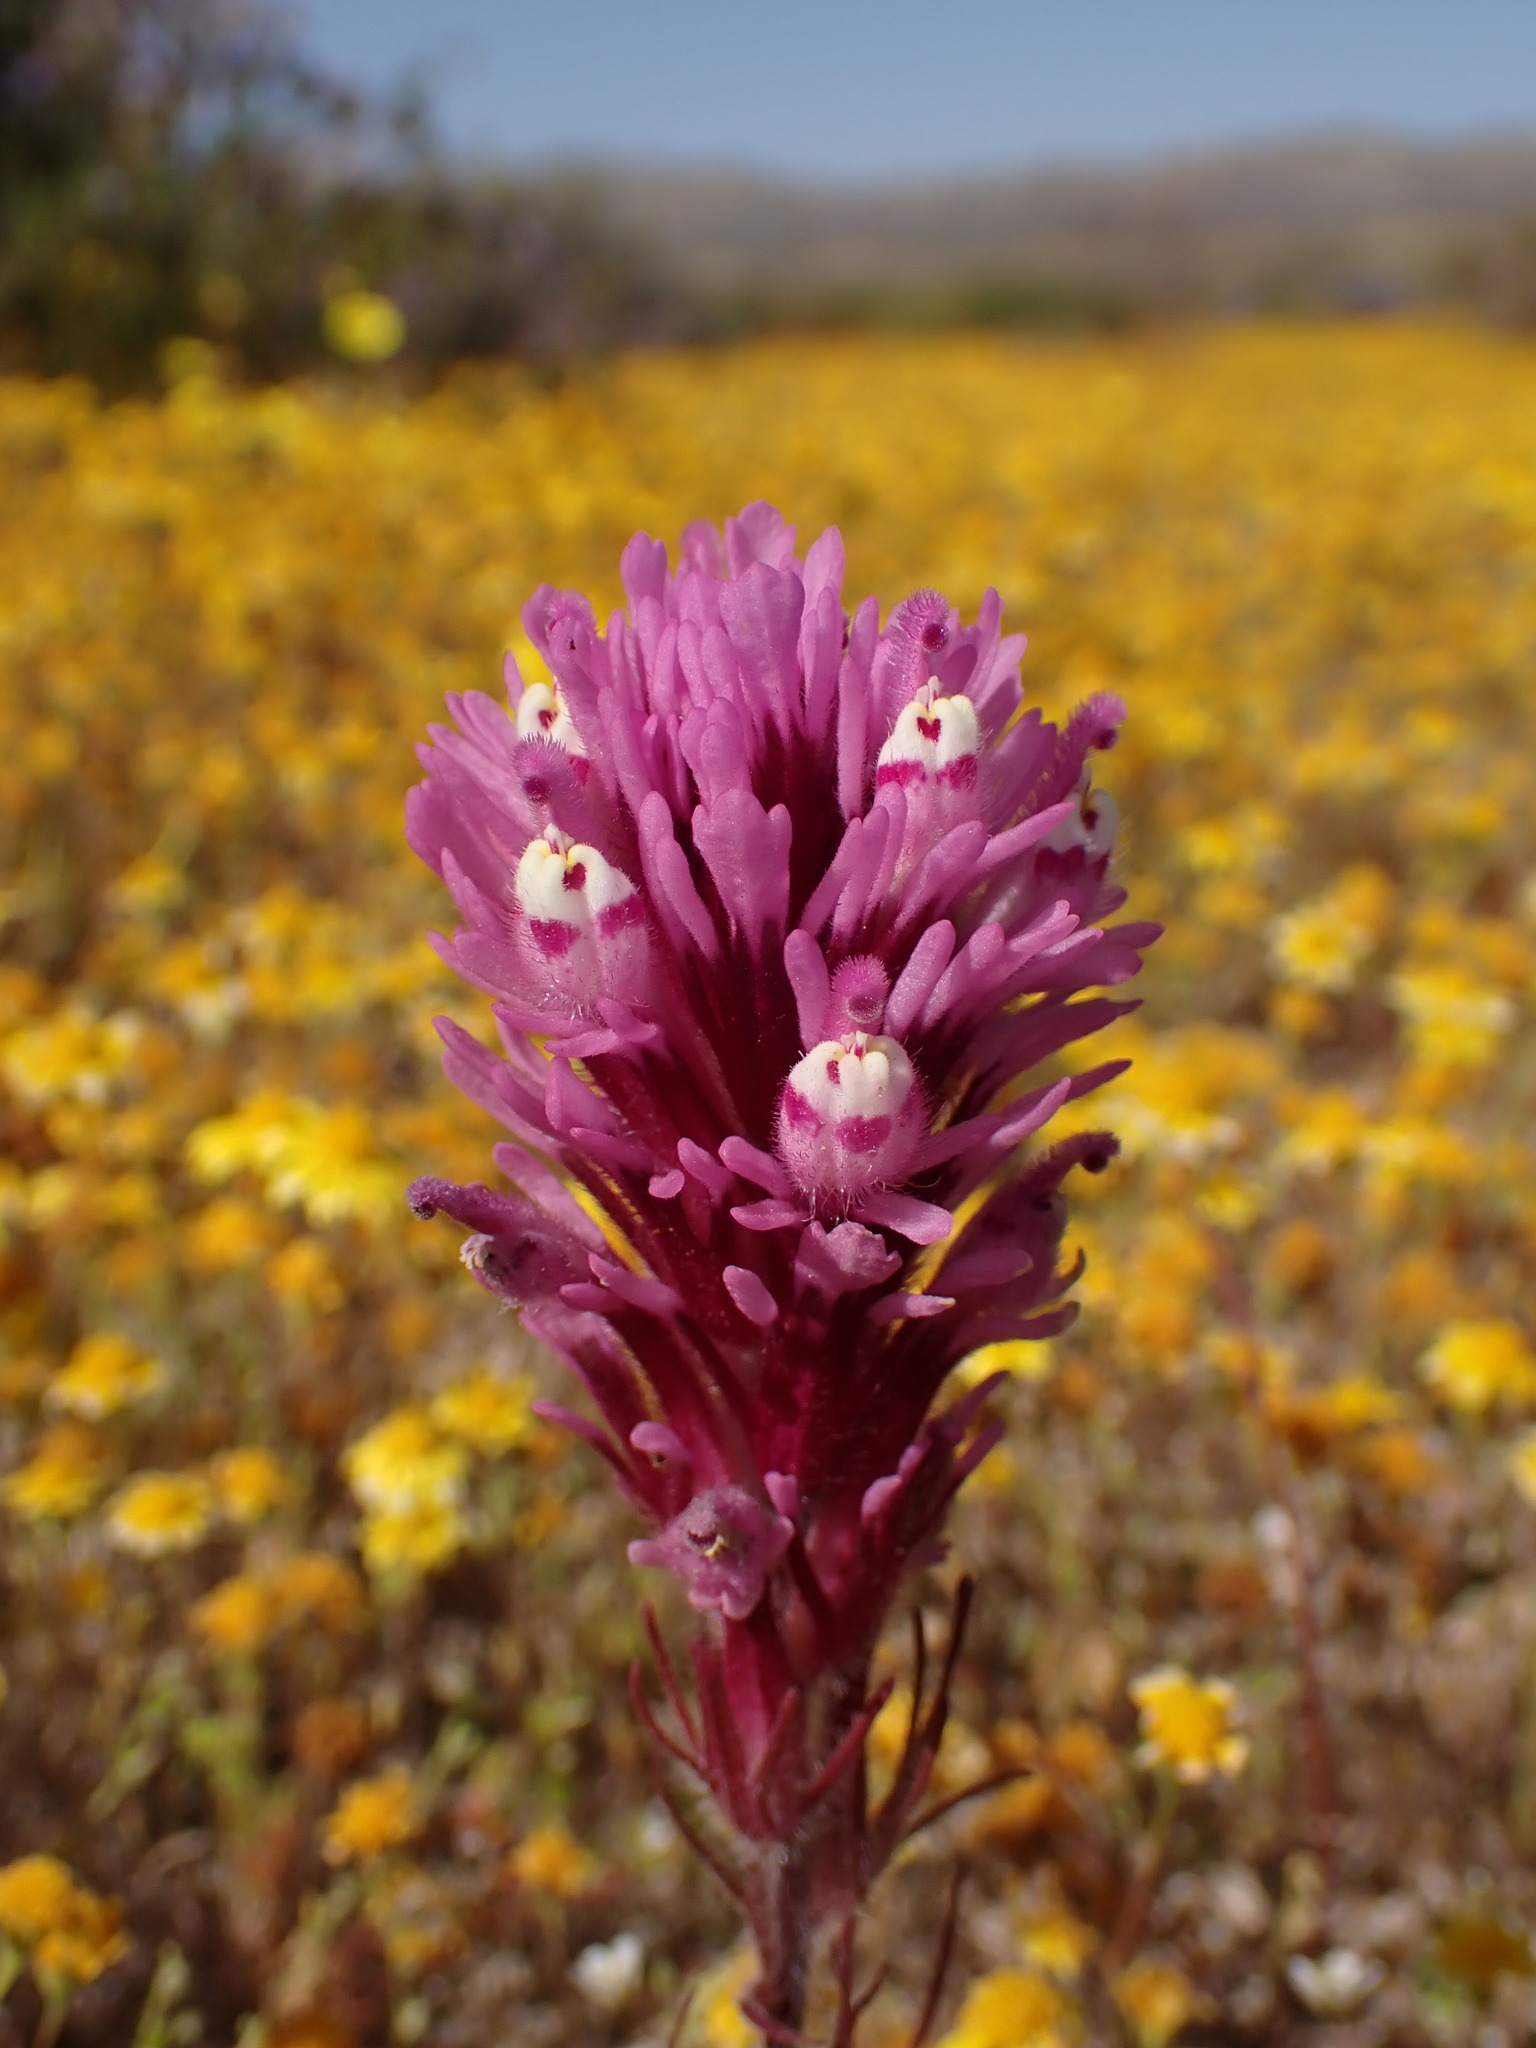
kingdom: Plantae
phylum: Tracheophyta
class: Magnoliopsida
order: Lamiales
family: Orobanchaceae
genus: Castilleja
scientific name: Castilleja exserta
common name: Purple owl-clover
